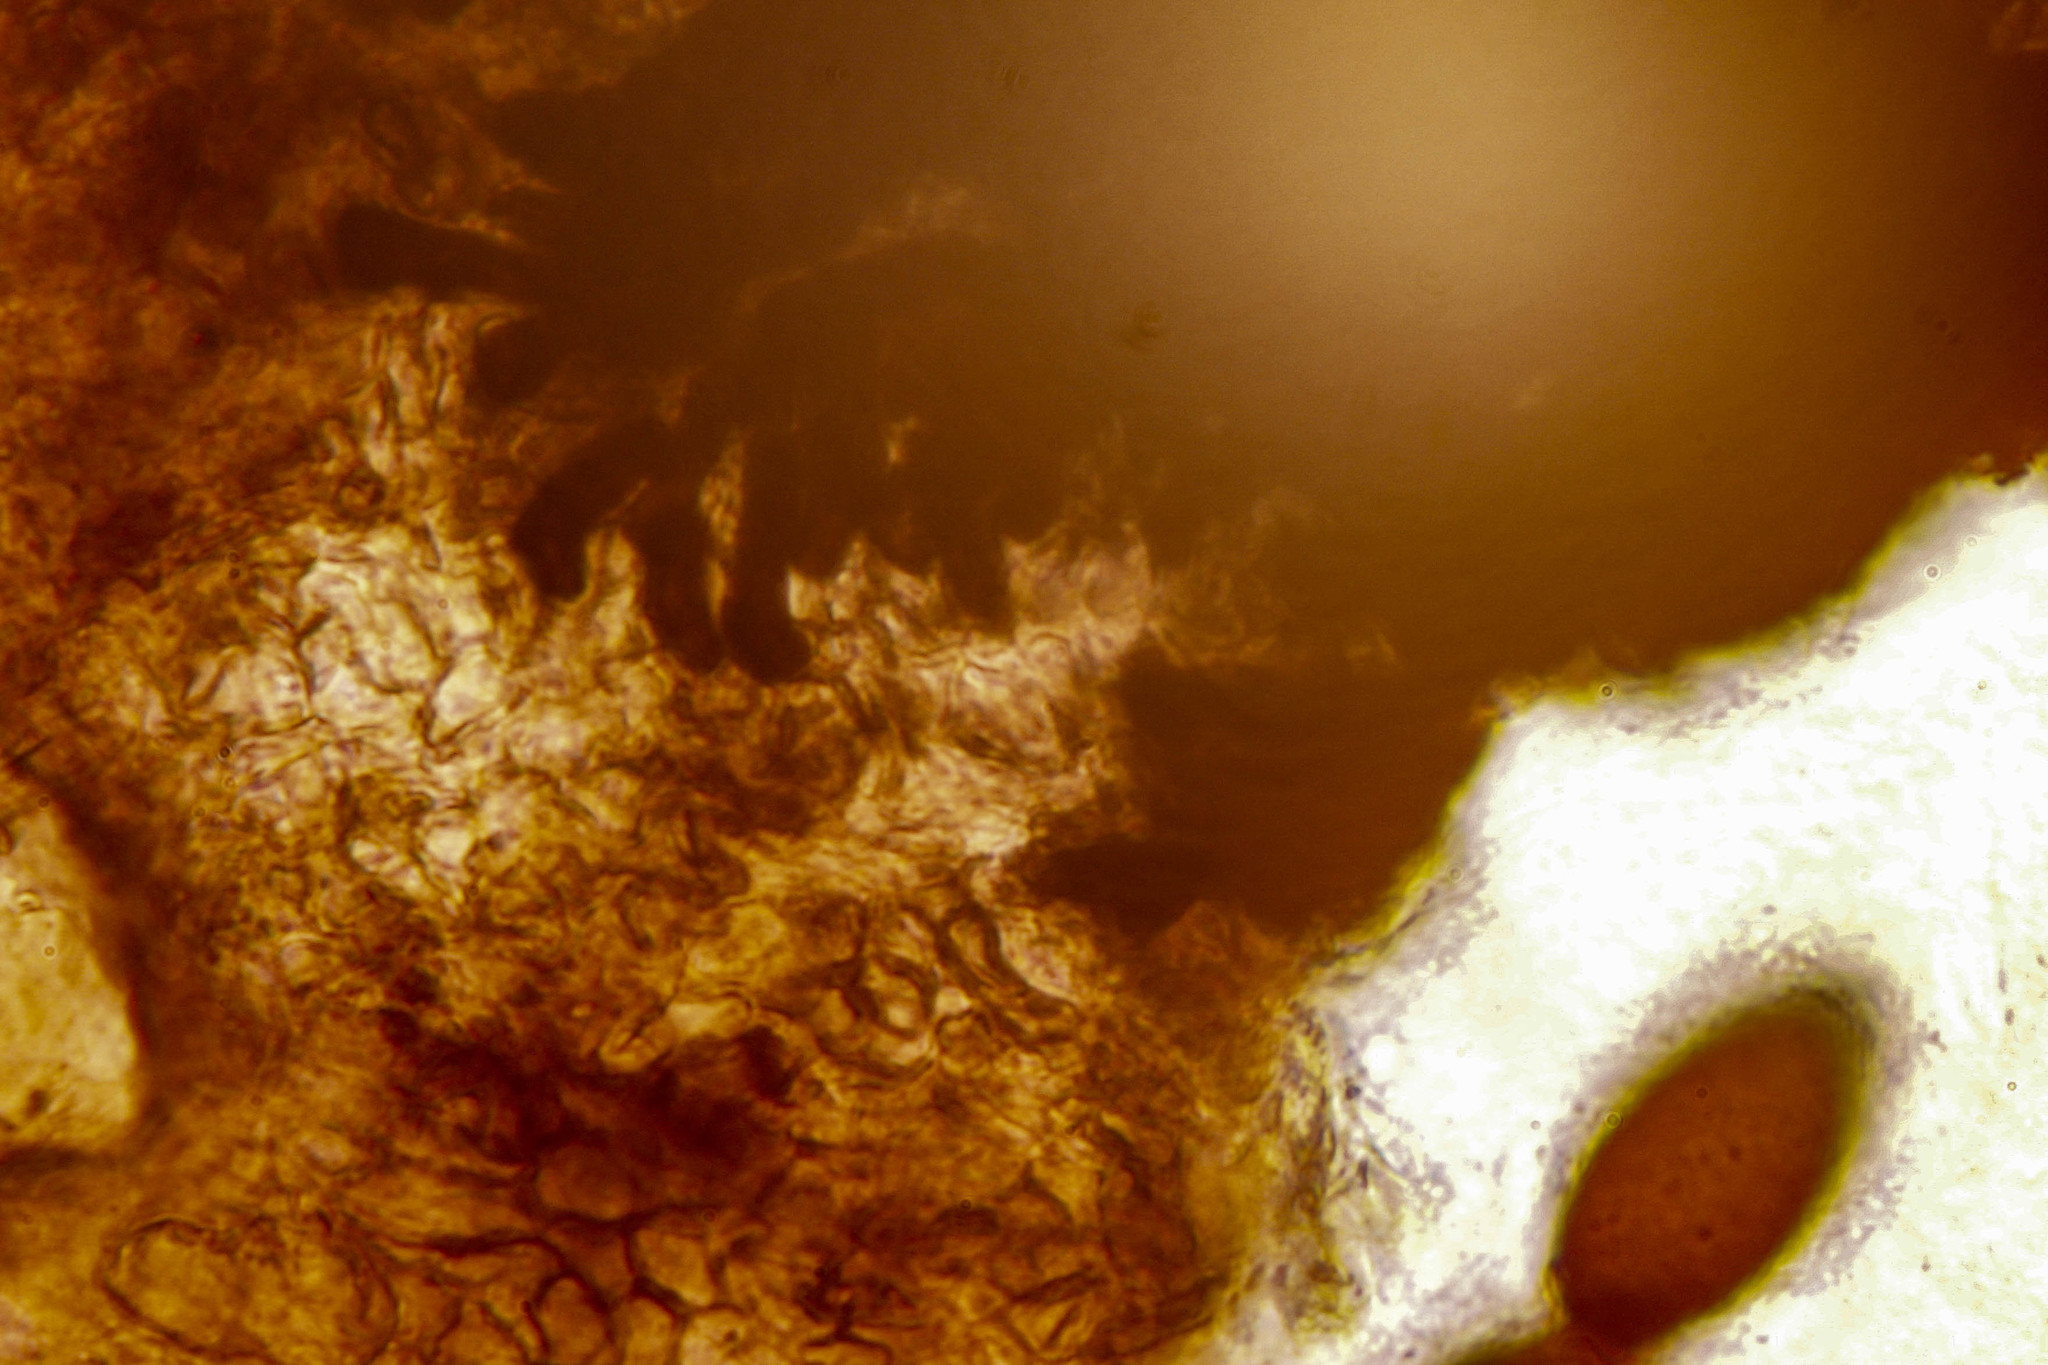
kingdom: Fungi
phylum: Ascomycota
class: Sordariomycetes
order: Sordariales
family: Naviculisporaceae
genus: Rhypophila
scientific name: Rhypophila decipiens
